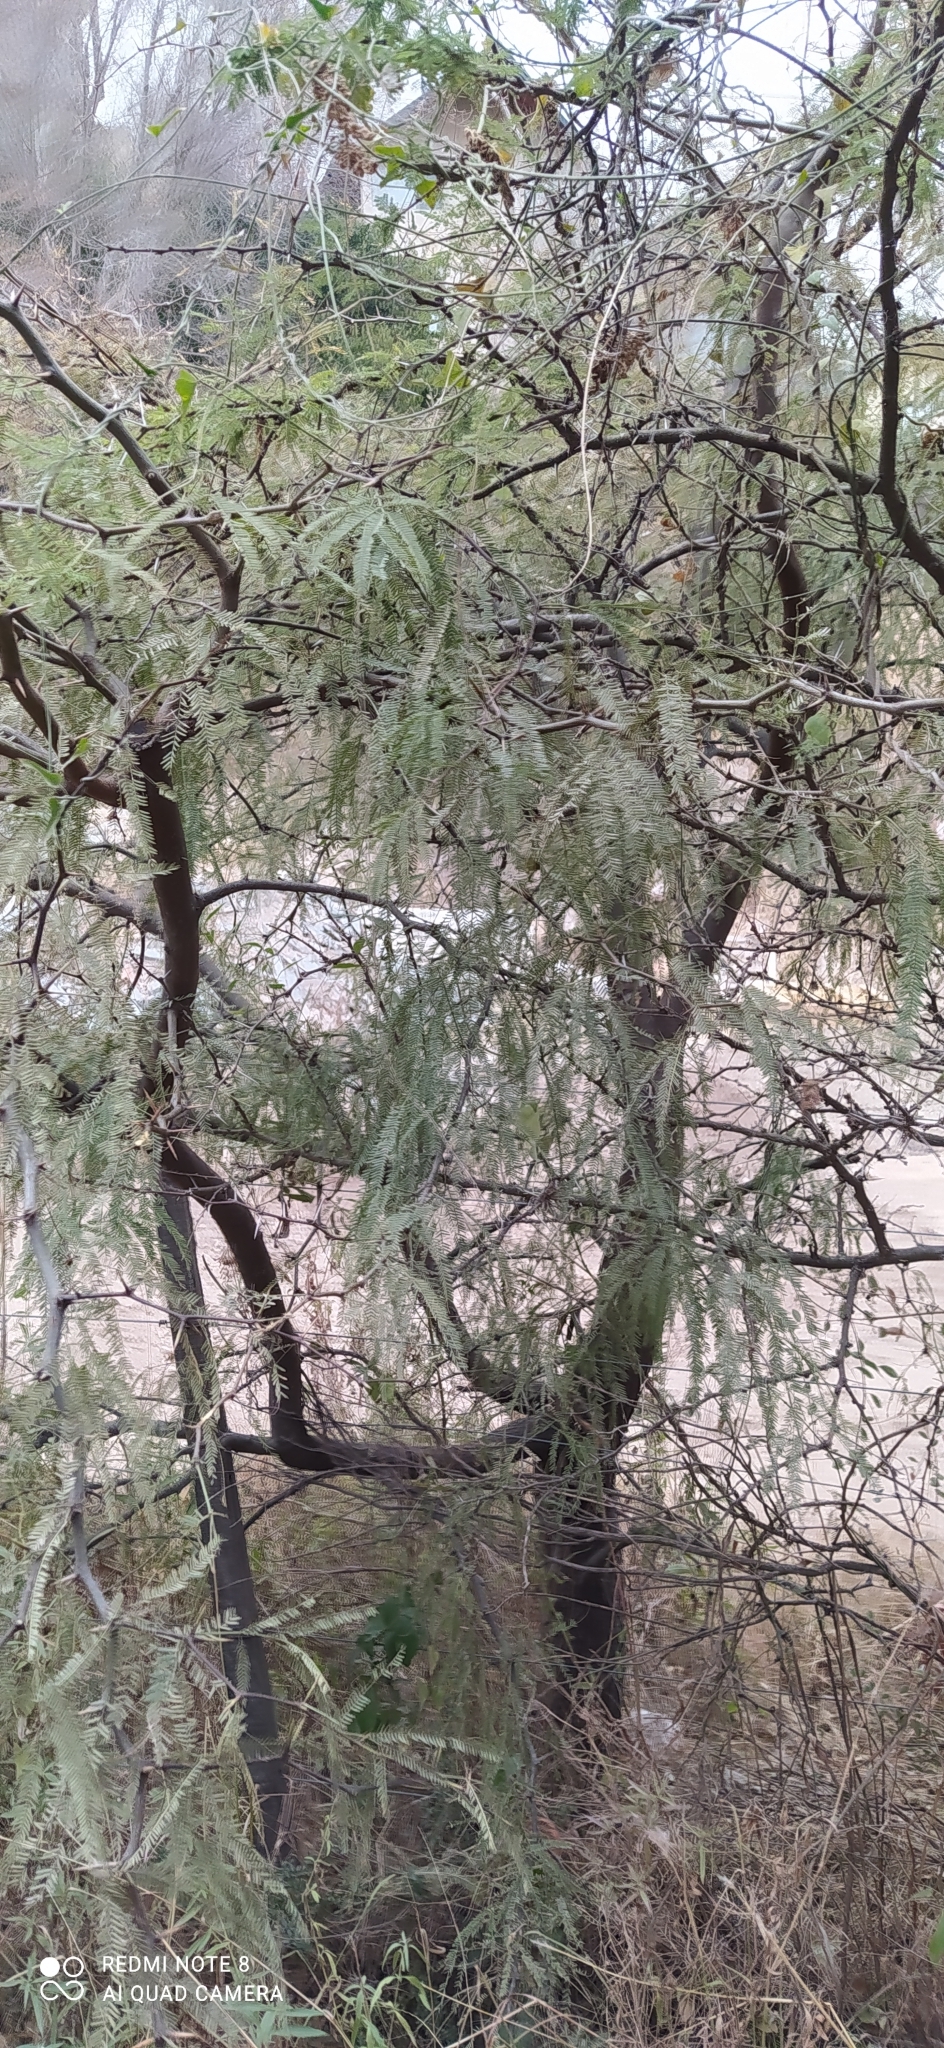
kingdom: Plantae
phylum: Tracheophyta
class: Magnoliopsida
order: Fabales
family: Fabaceae
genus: Prosopis
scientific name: Prosopis alba
